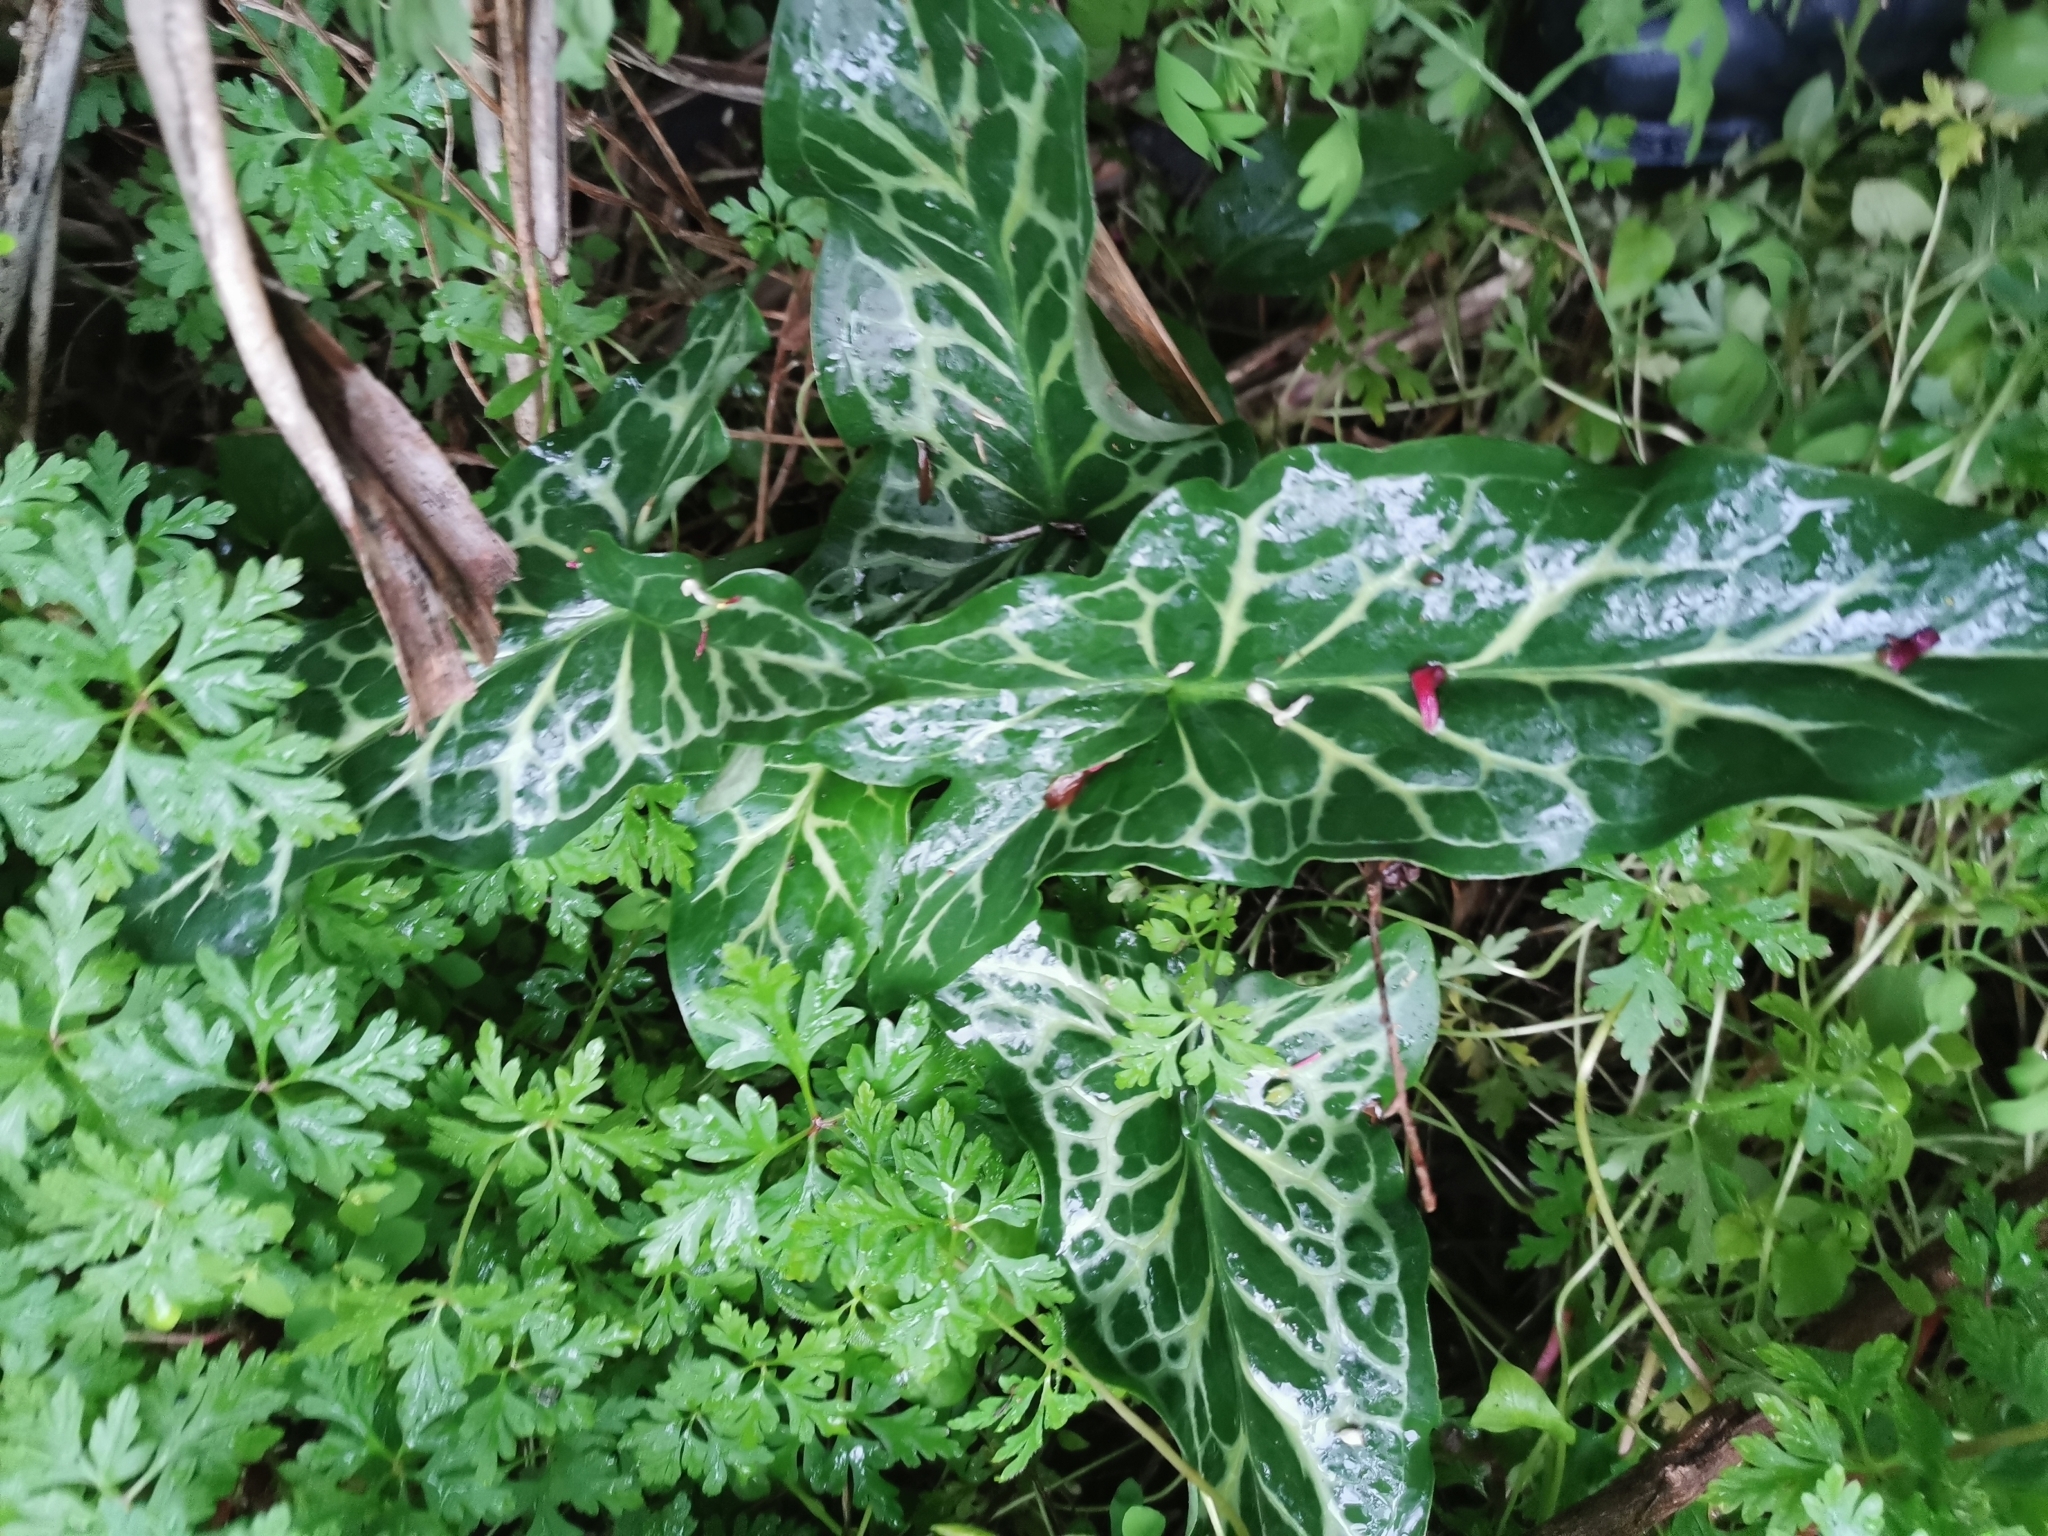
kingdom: Plantae
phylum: Tracheophyta
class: Liliopsida
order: Alismatales
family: Araceae
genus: Arum
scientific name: Arum italicum
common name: Italian lords-and-ladies
